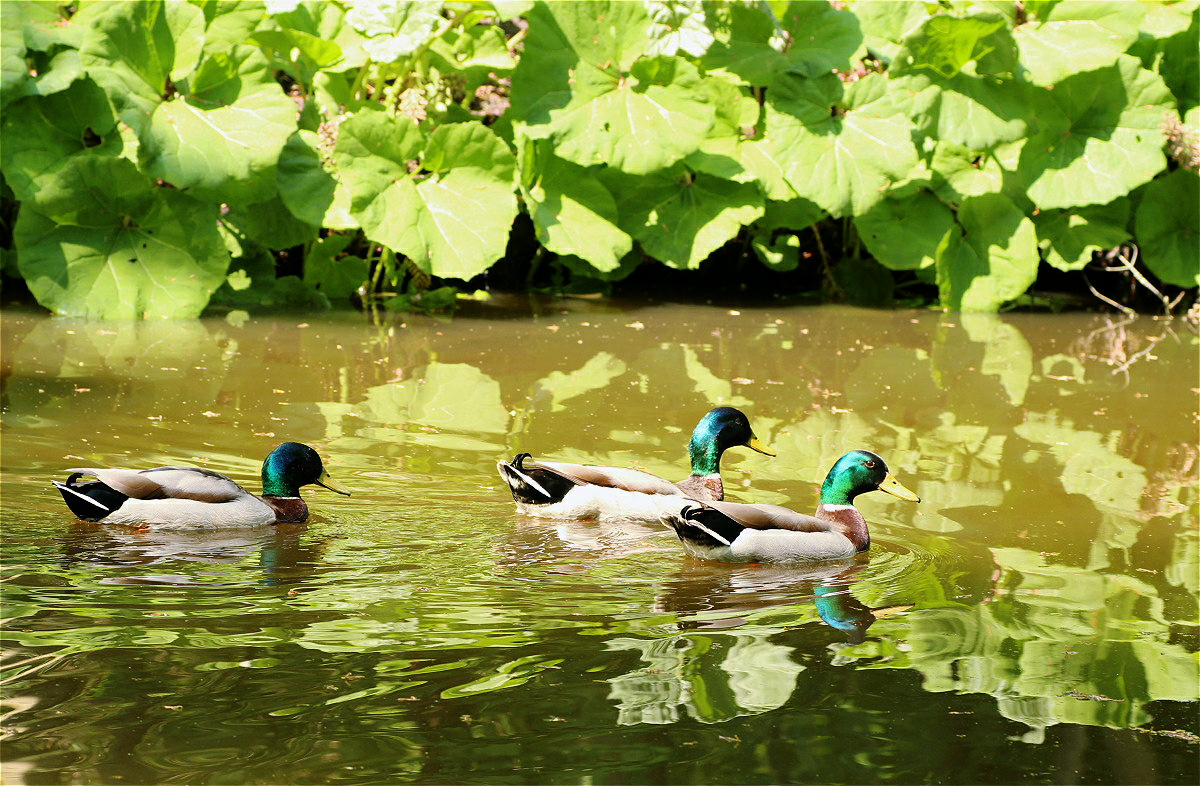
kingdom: Animalia
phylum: Chordata
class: Aves
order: Anseriformes
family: Anatidae
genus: Anas
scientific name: Anas platyrhynchos
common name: Mallard
